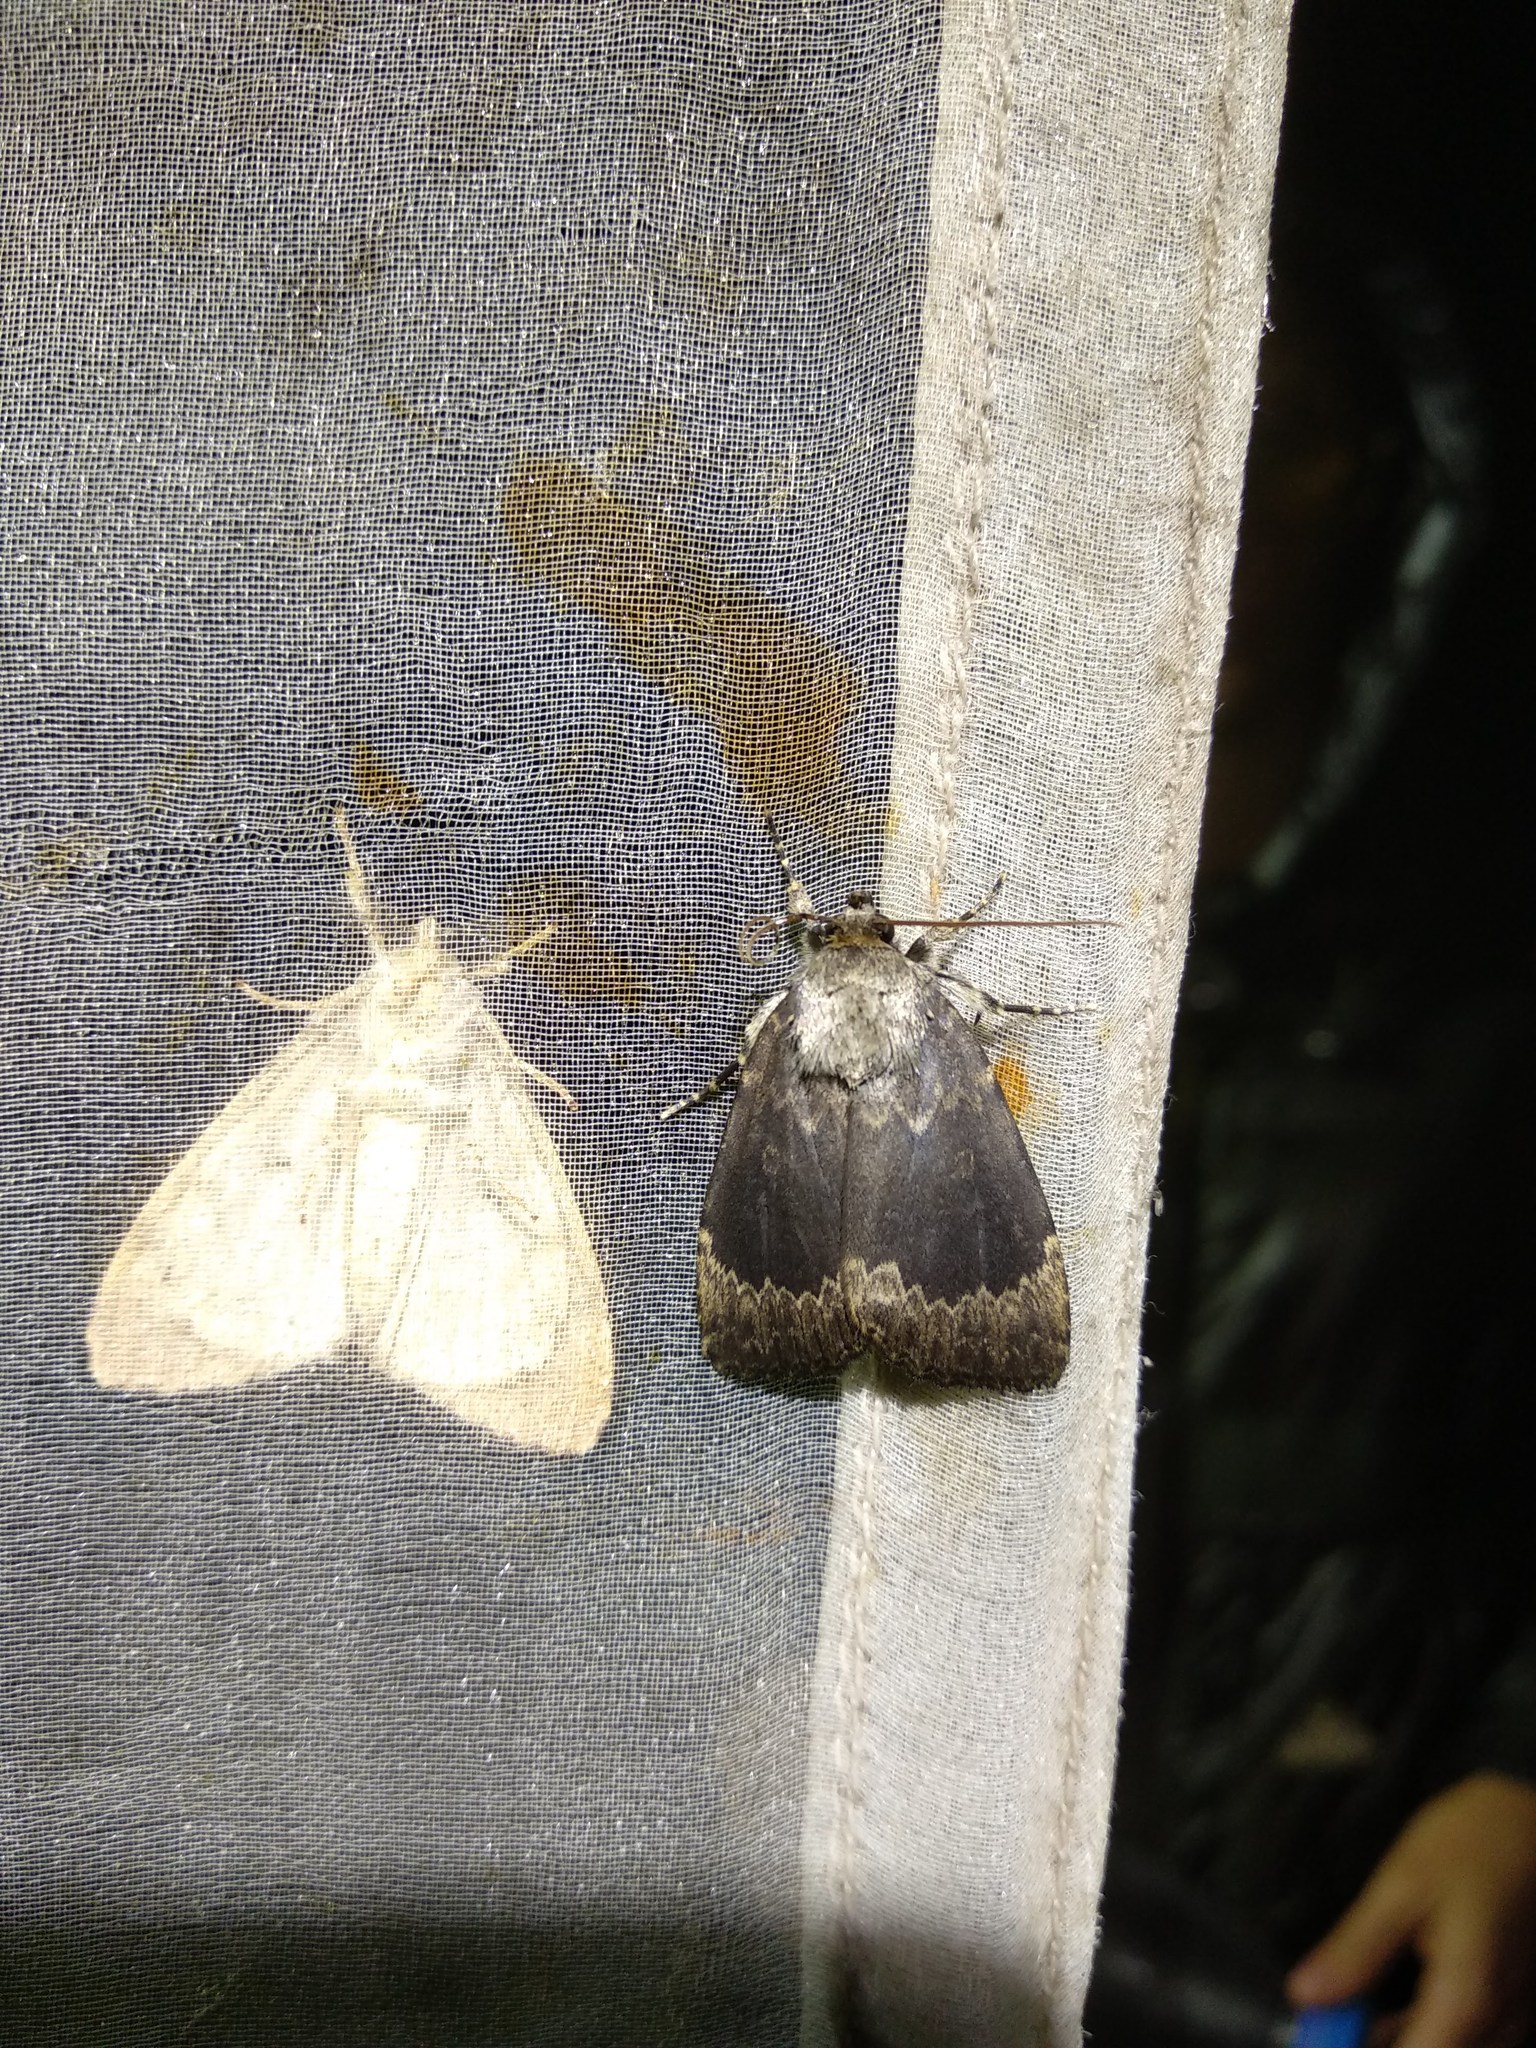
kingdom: Animalia
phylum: Arthropoda
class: Insecta
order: Lepidoptera
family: Noctuidae
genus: Amphipyra
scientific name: Amphipyra perflua
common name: Larger pale-tipped black moth
